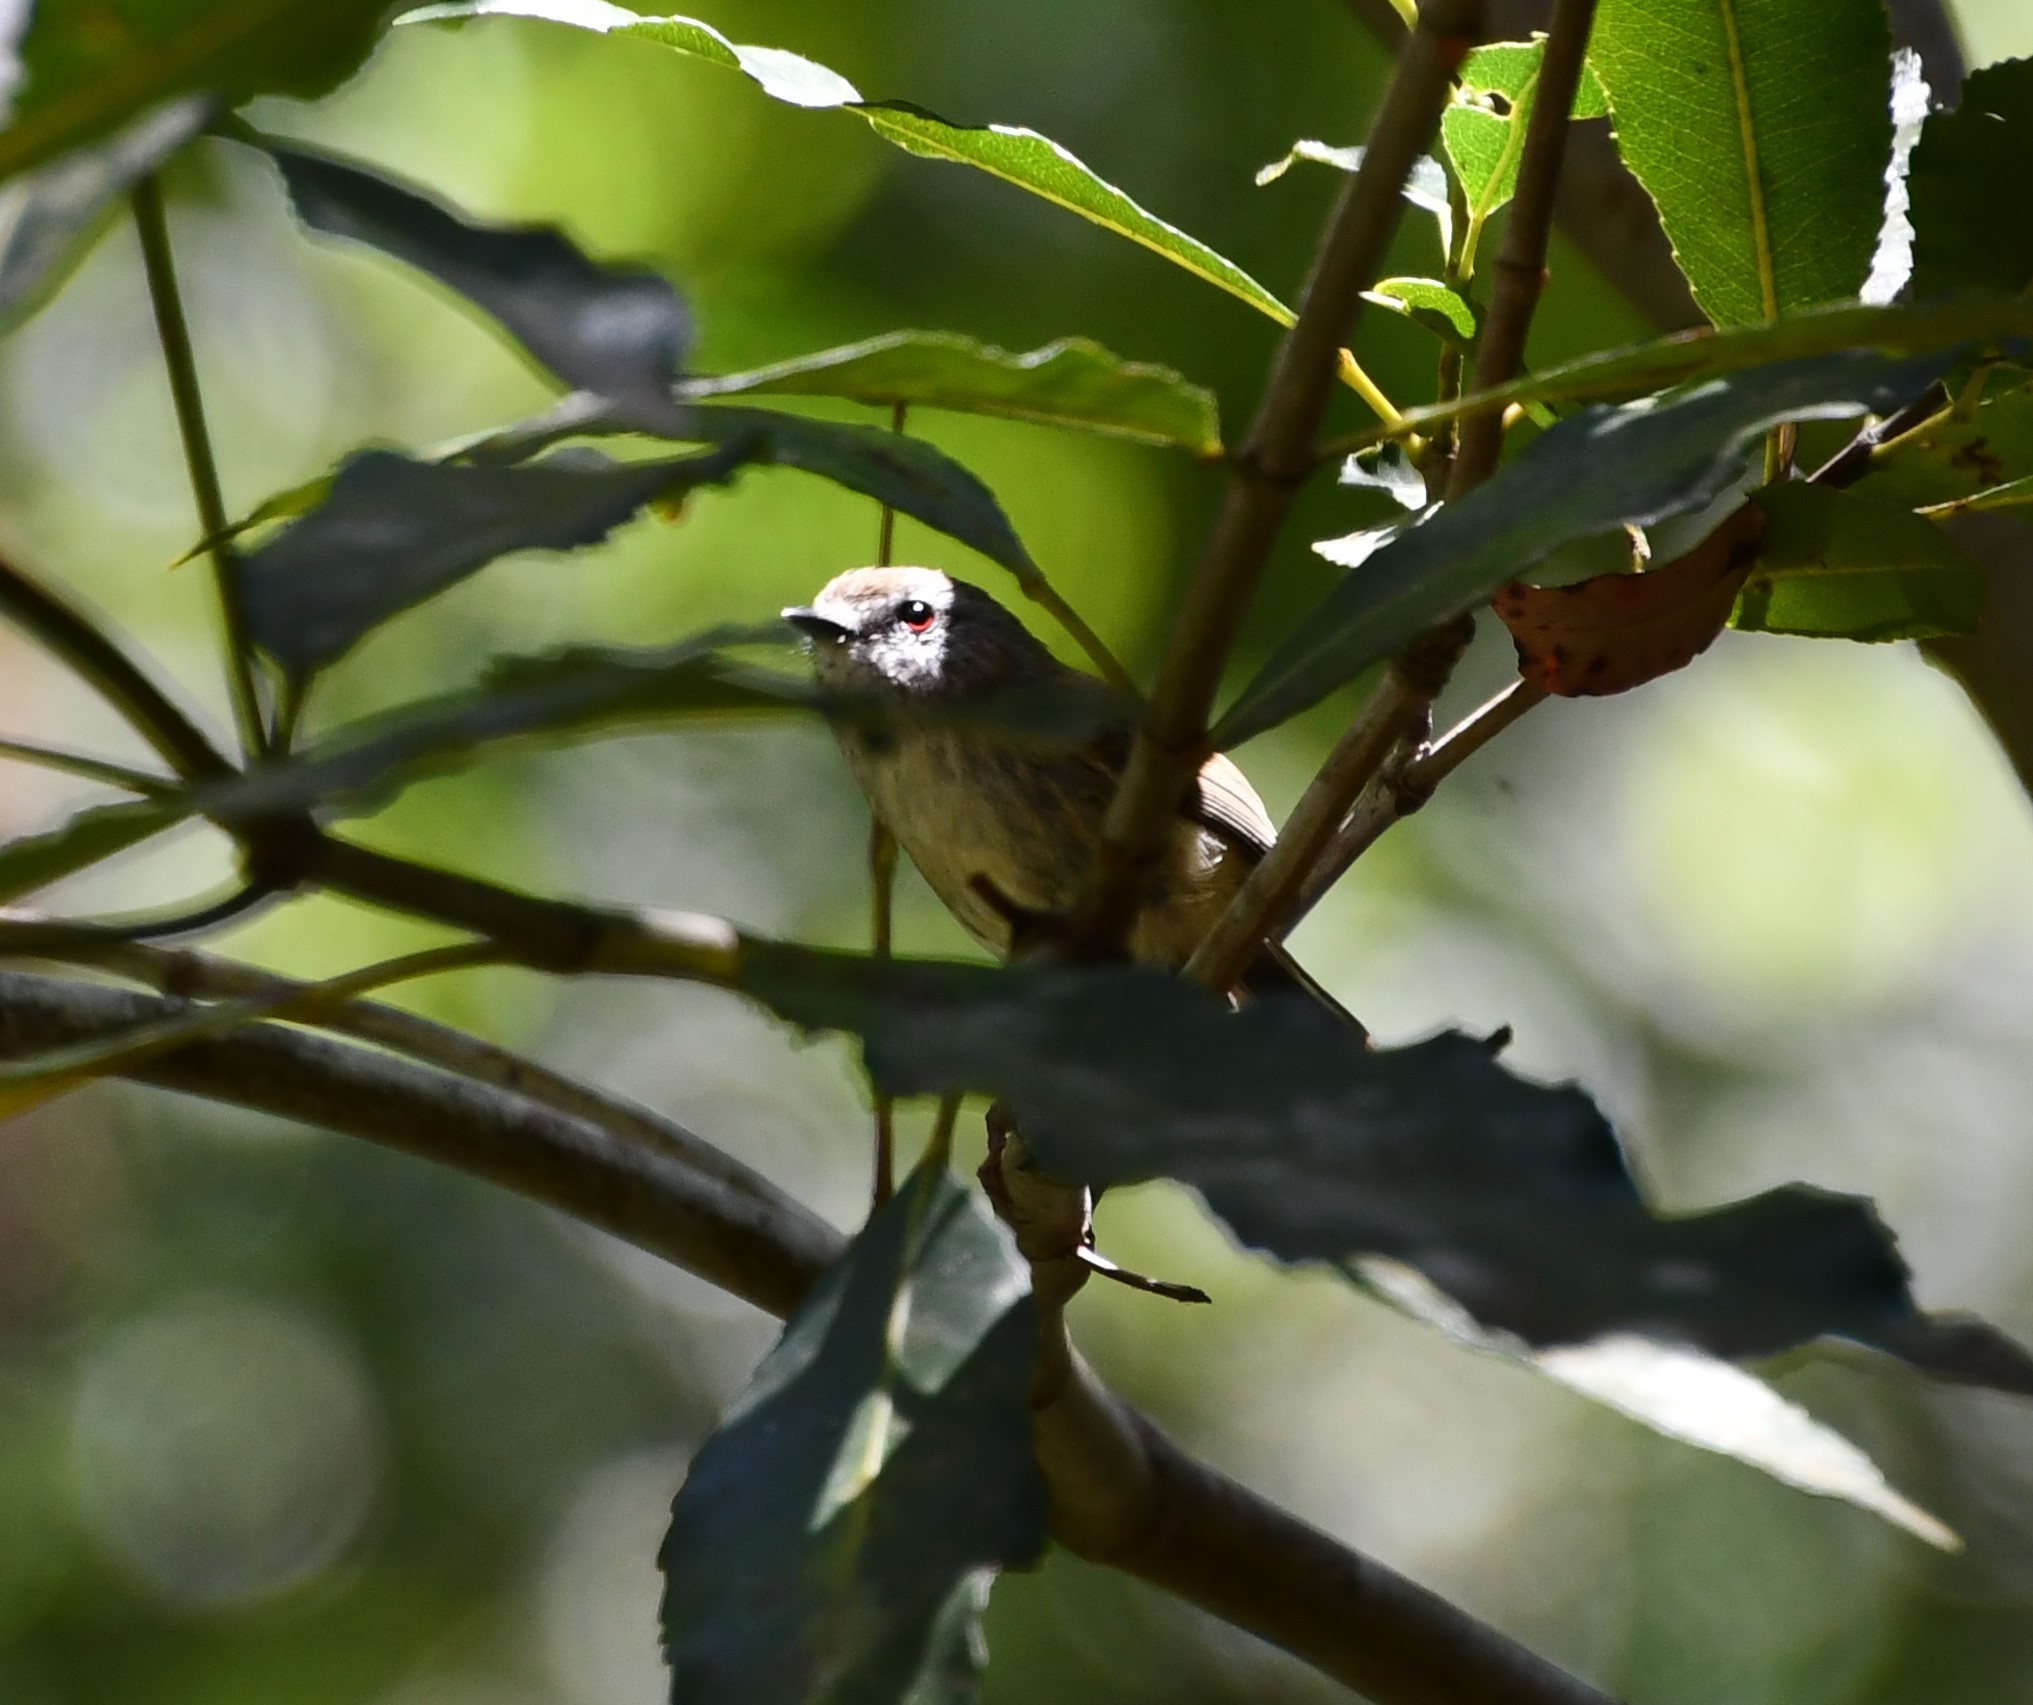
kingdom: Animalia
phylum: Chordata
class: Aves
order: Passeriformes
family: Acanthizidae
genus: Gerygone
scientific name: Gerygone mouki
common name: Brown gerygone
